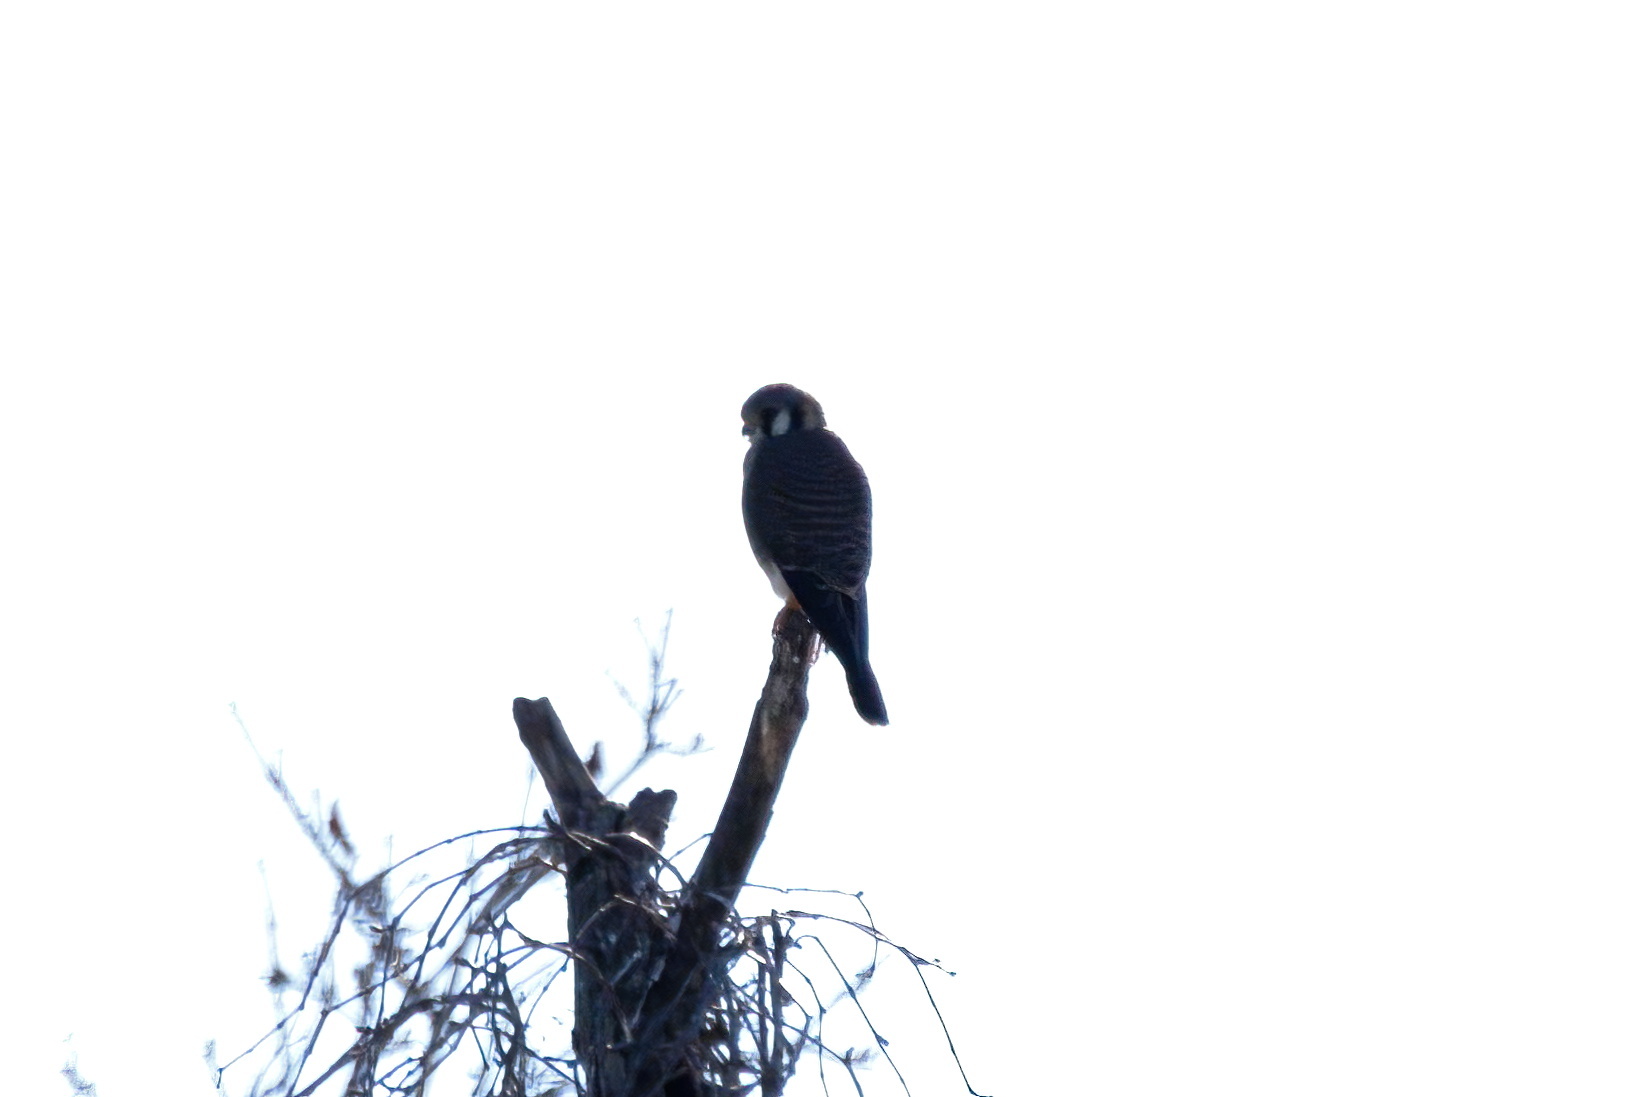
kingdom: Animalia
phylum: Chordata
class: Aves
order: Falconiformes
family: Falconidae
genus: Falco
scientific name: Falco sparverius
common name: American kestrel
